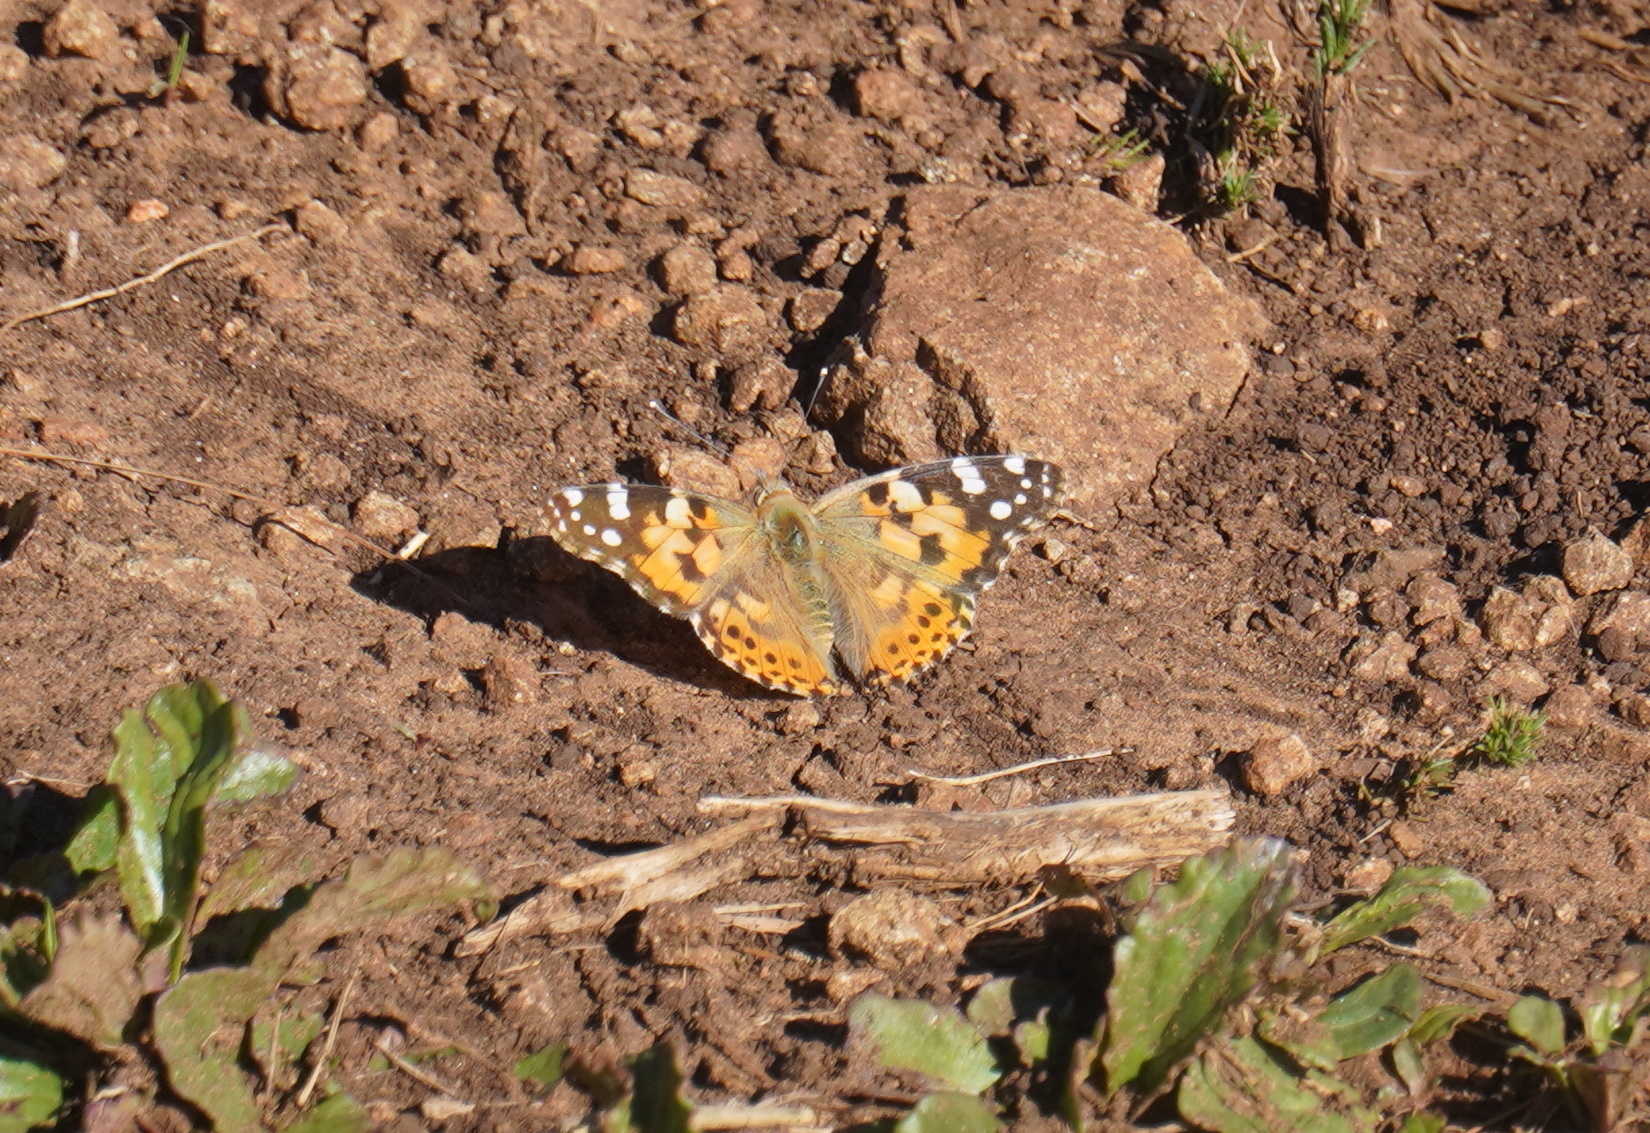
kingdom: Animalia
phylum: Arthropoda
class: Insecta
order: Lepidoptera
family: Nymphalidae
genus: Vanessa
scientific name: Vanessa cardui
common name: Painted lady
